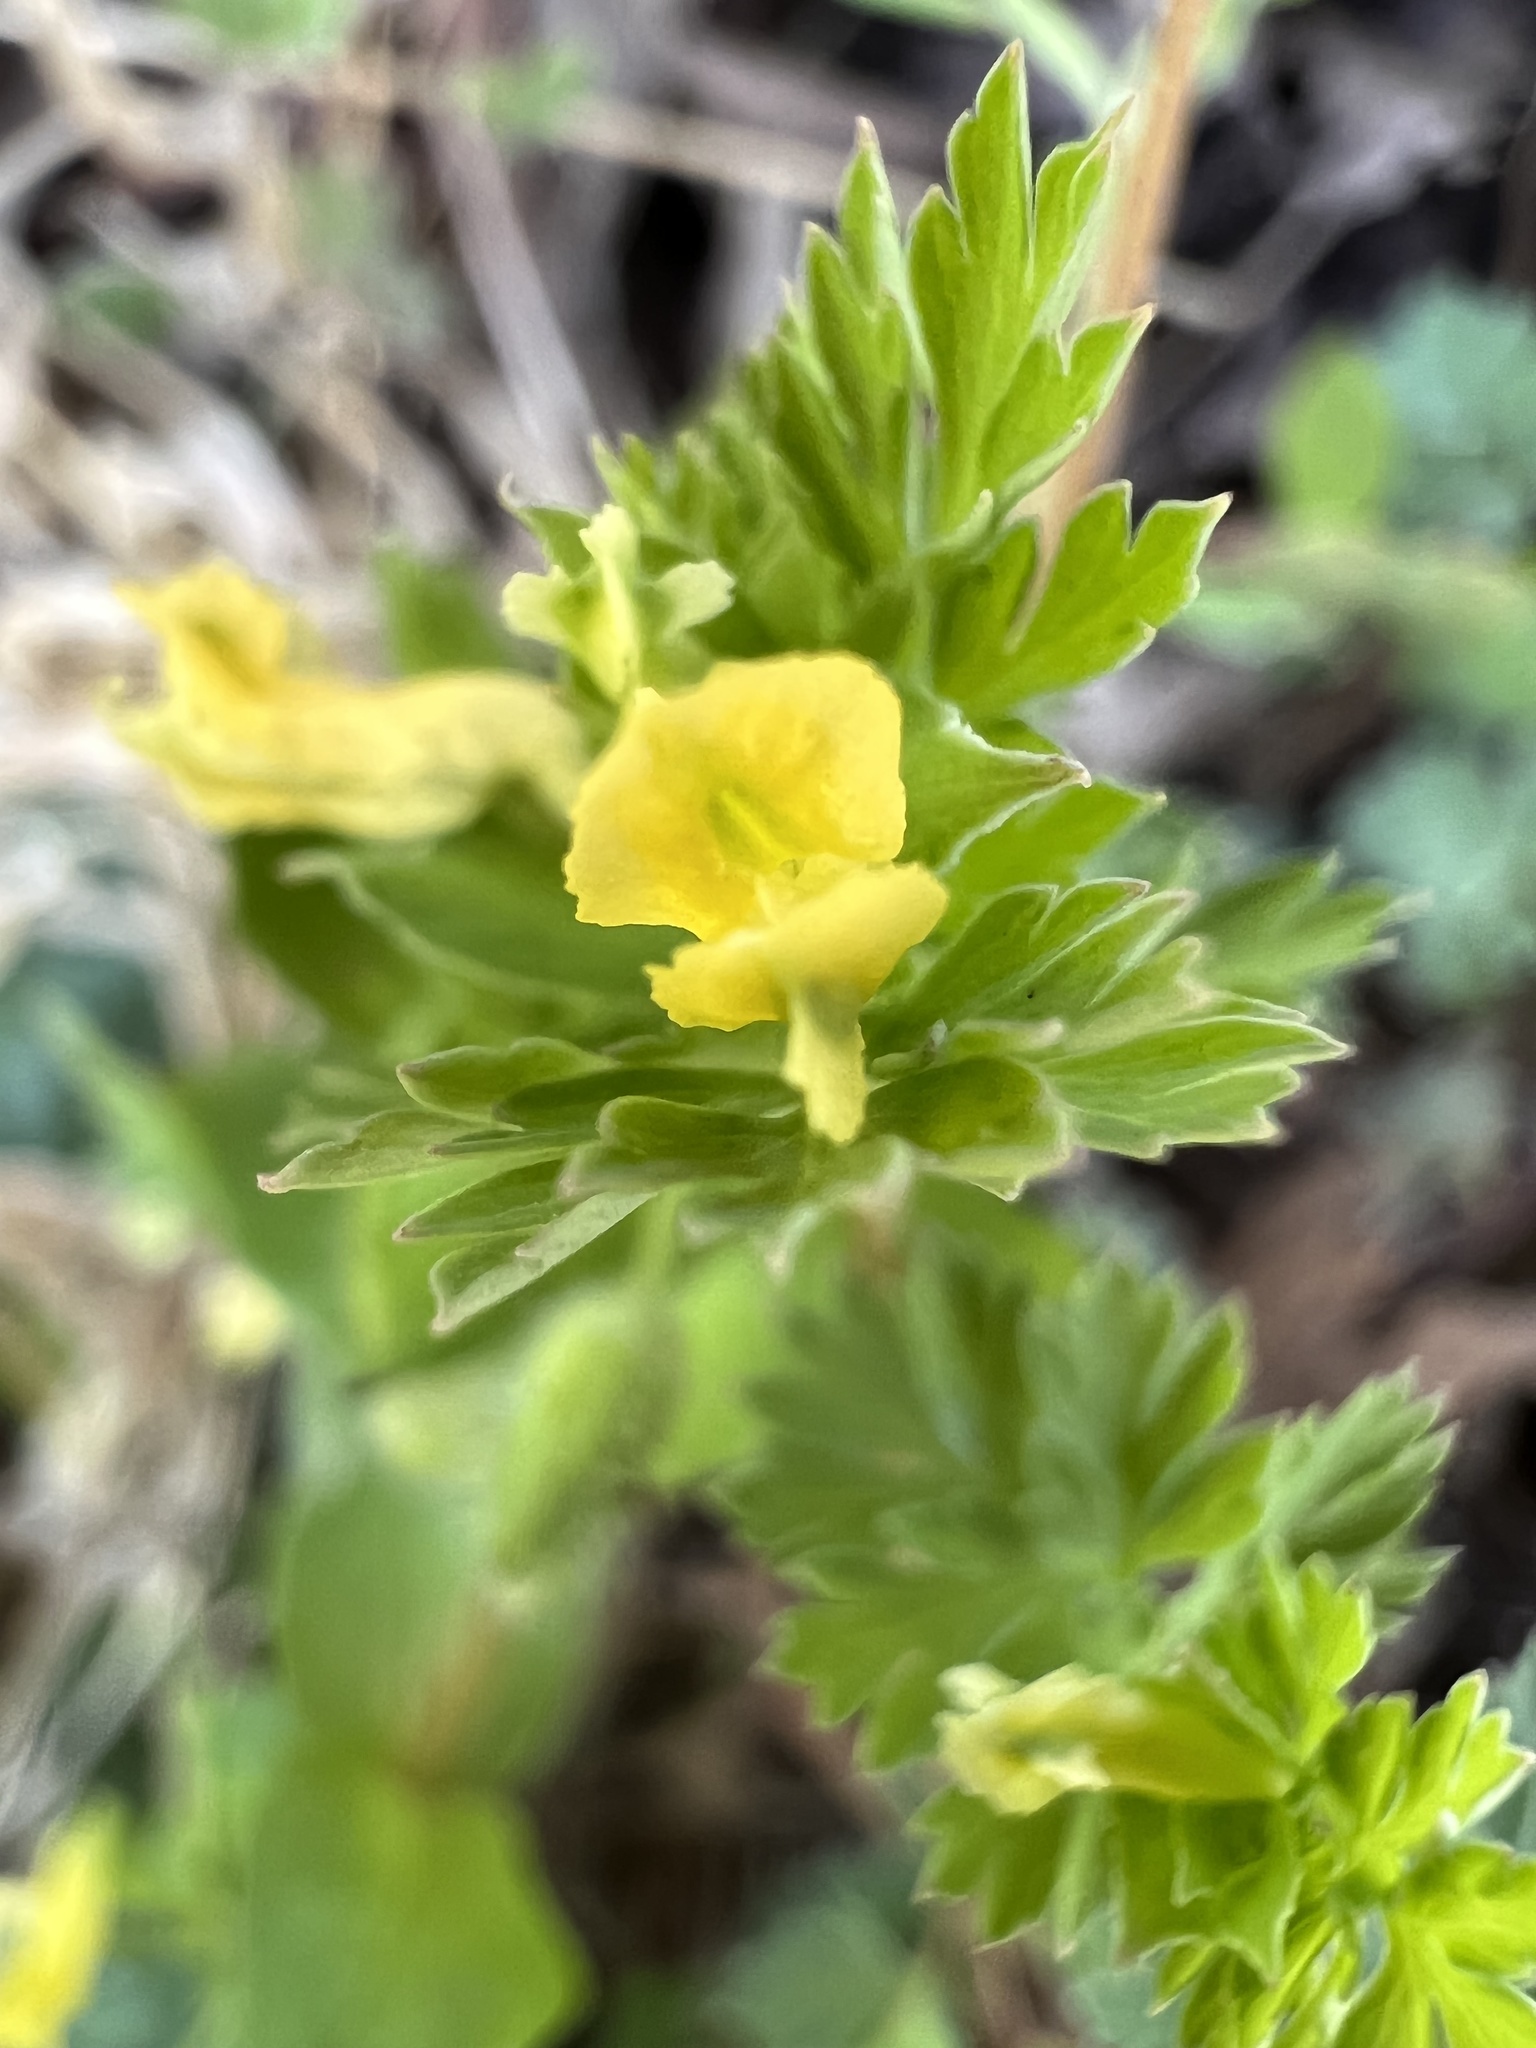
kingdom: Plantae
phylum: Tracheophyta
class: Magnoliopsida
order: Ranunculales
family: Papaveraceae
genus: Corydalis
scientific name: Corydalis flavula
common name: Yellow corydalis
